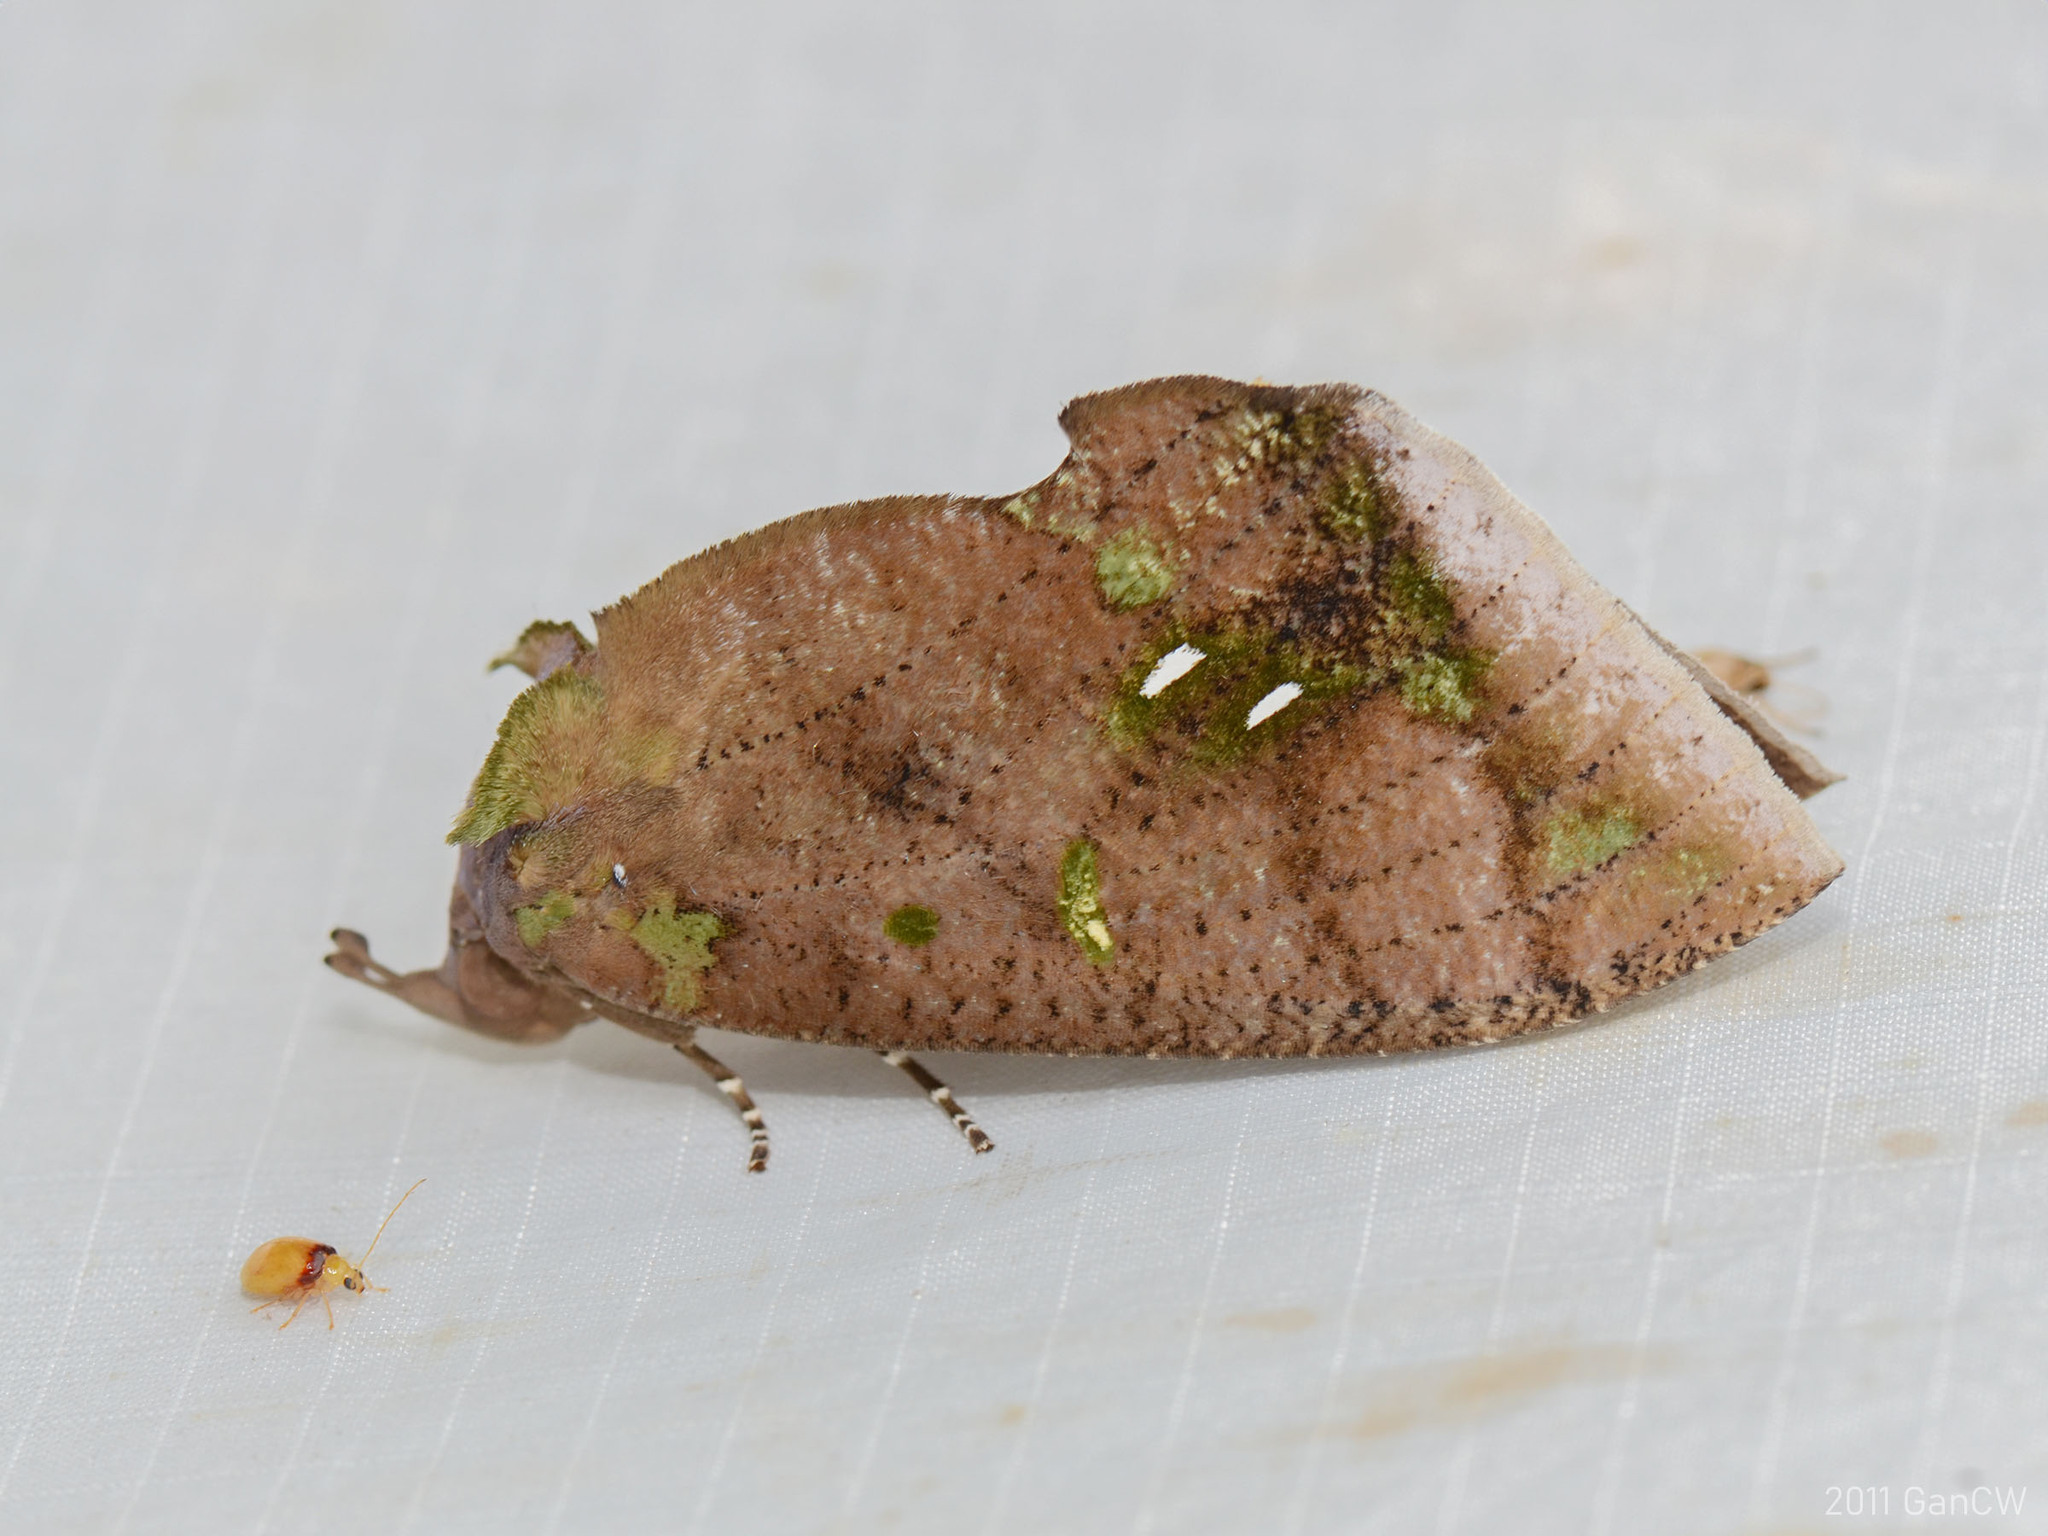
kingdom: Animalia
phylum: Arthropoda
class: Insecta
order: Lepidoptera
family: Erebidae
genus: Eudocima
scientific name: Eudocima discrepans
